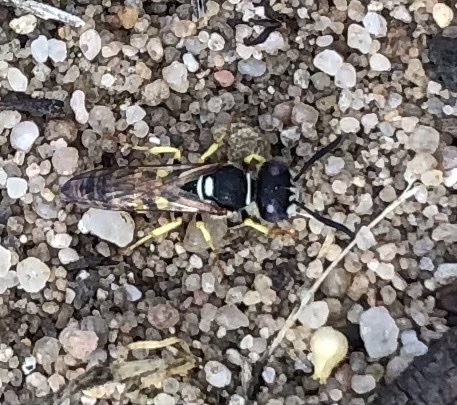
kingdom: Animalia
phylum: Arthropoda
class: Insecta
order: Hymenoptera
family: Crabronidae
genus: Philanthus
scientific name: Philanthus triangulum
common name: Bee wolf
